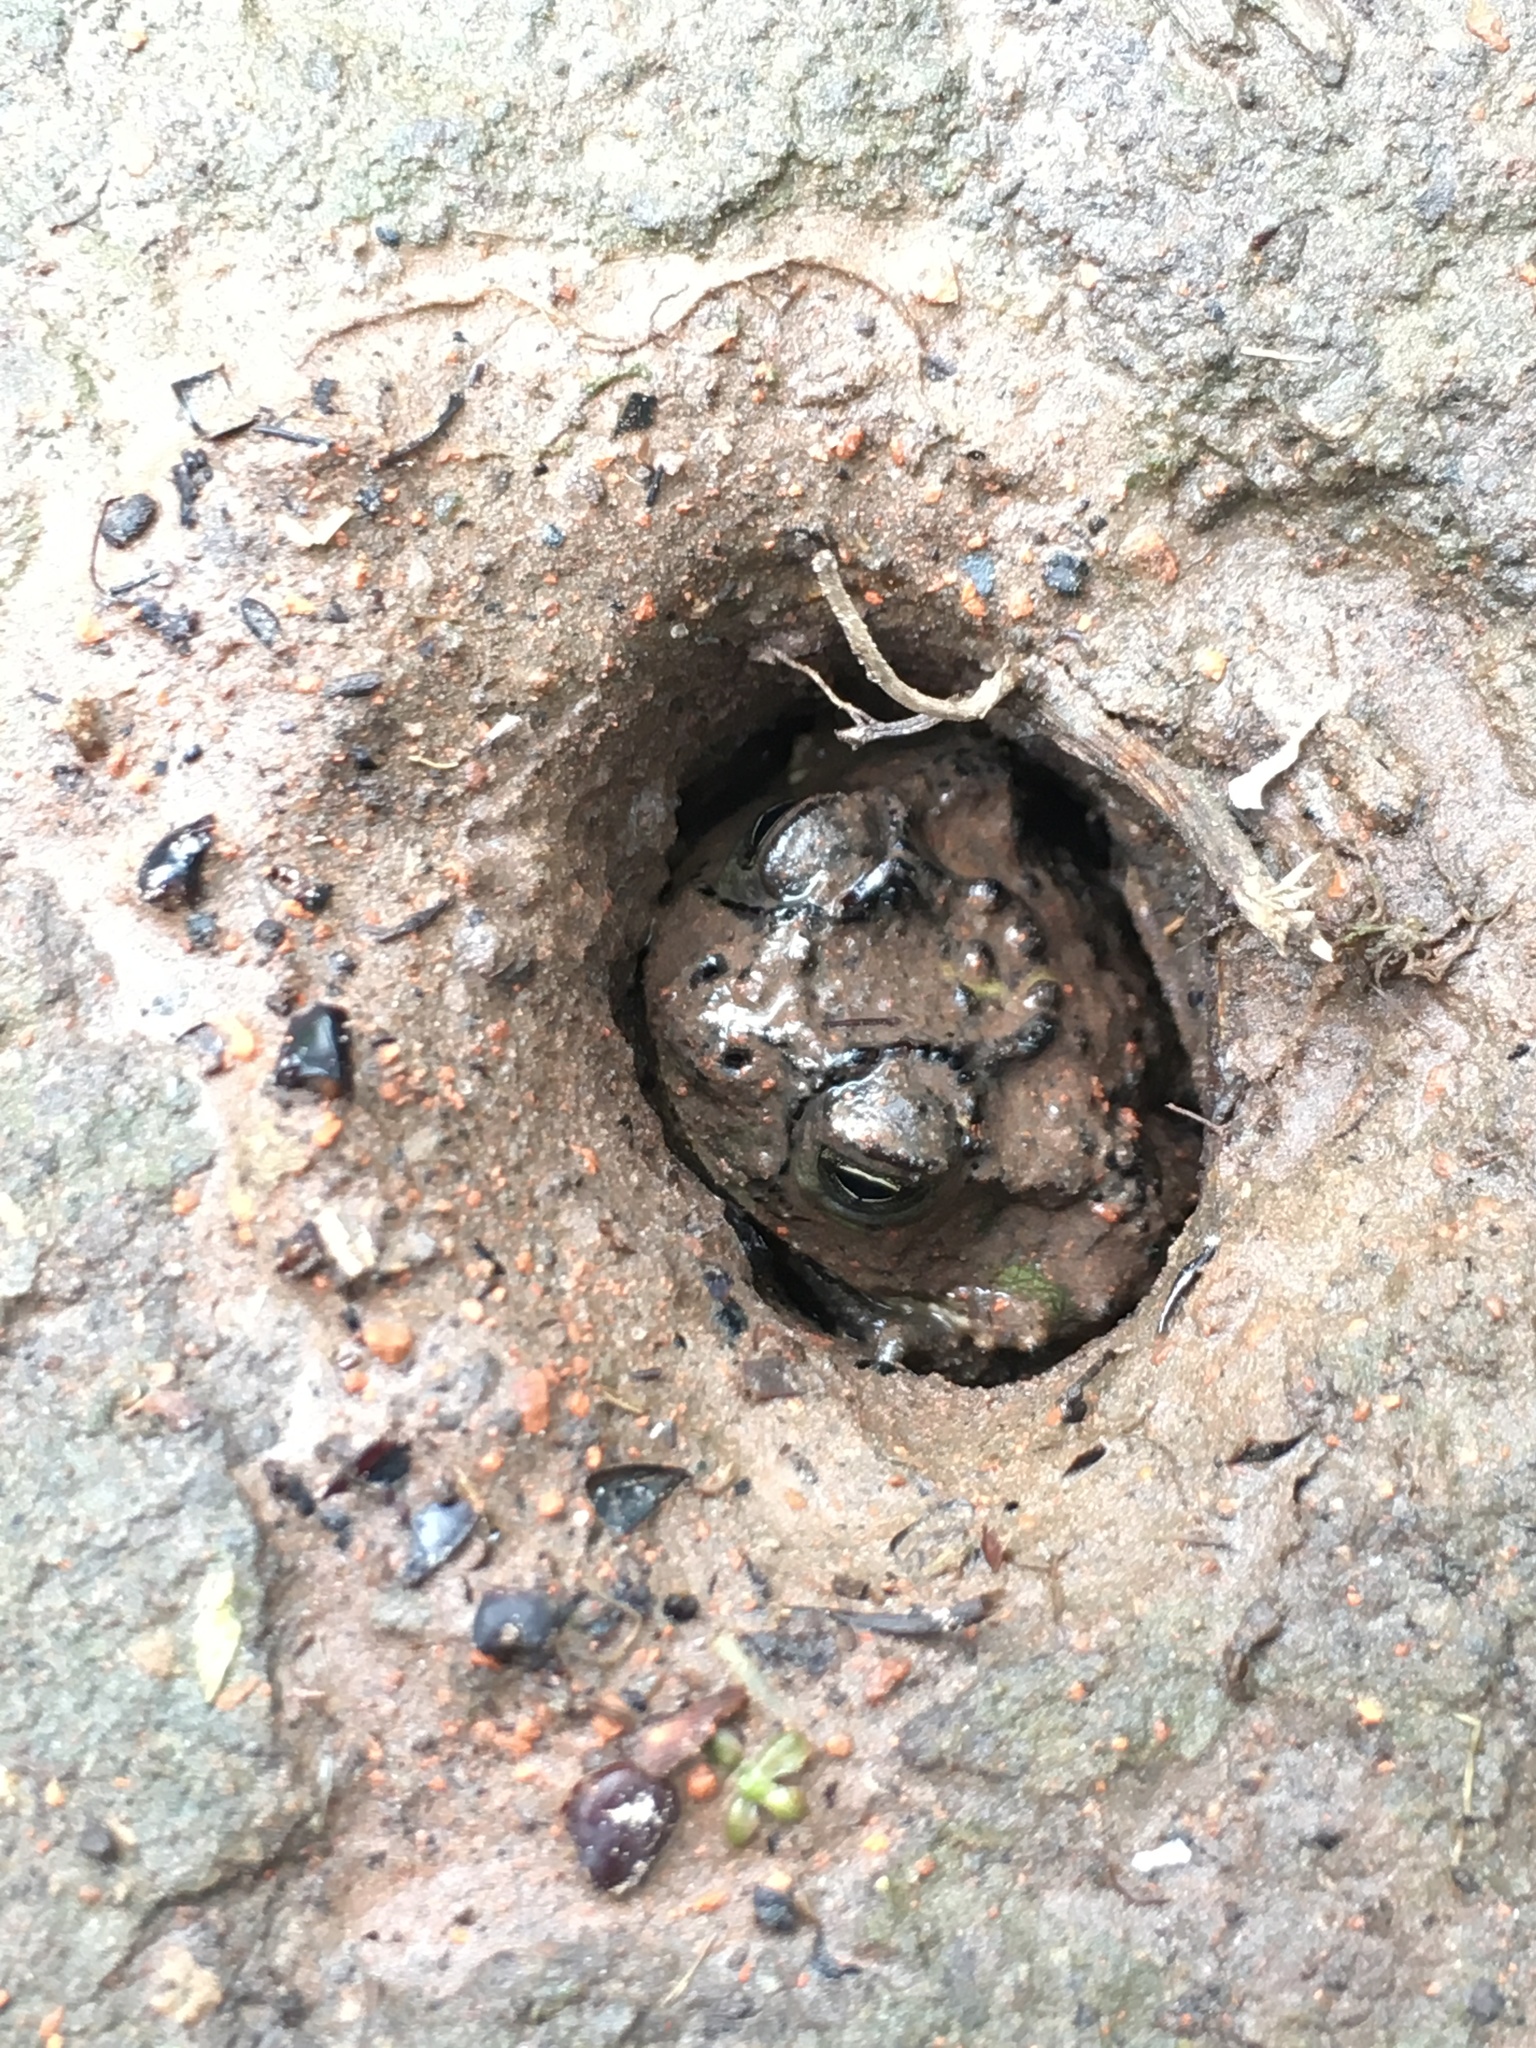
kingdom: Animalia
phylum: Chordata
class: Amphibia
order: Anura
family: Bufonidae
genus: Rhinella
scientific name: Rhinella dorbignyi
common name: D´orbigny’s toad
